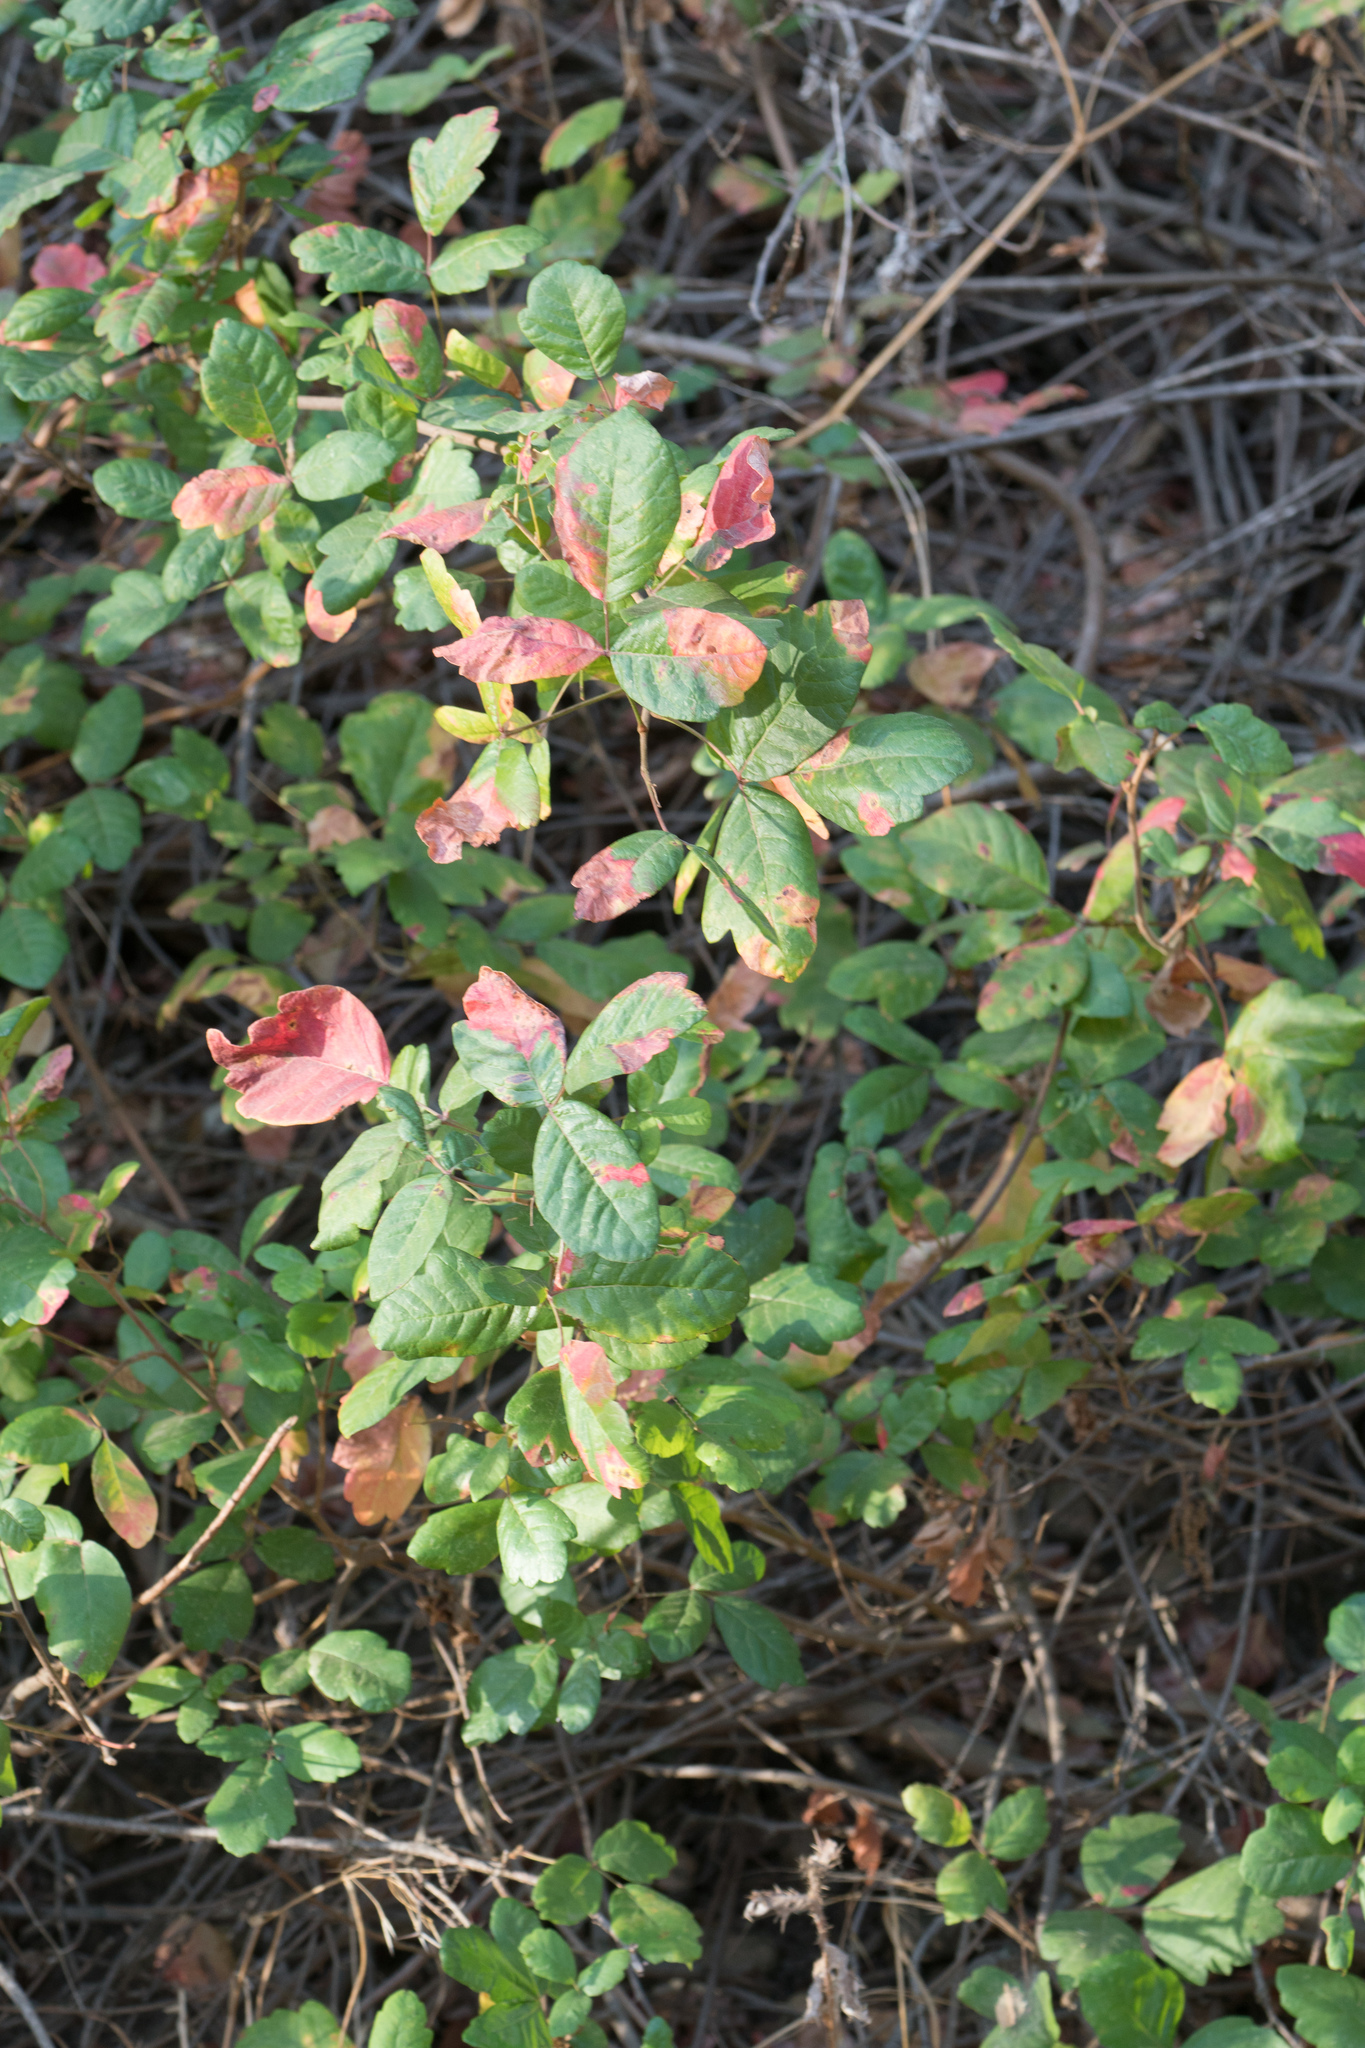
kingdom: Plantae
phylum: Tracheophyta
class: Magnoliopsida
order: Sapindales
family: Anacardiaceae
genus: Toxicodendron
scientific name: Toxicodendron diversilobum
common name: Pacific poison-oak
